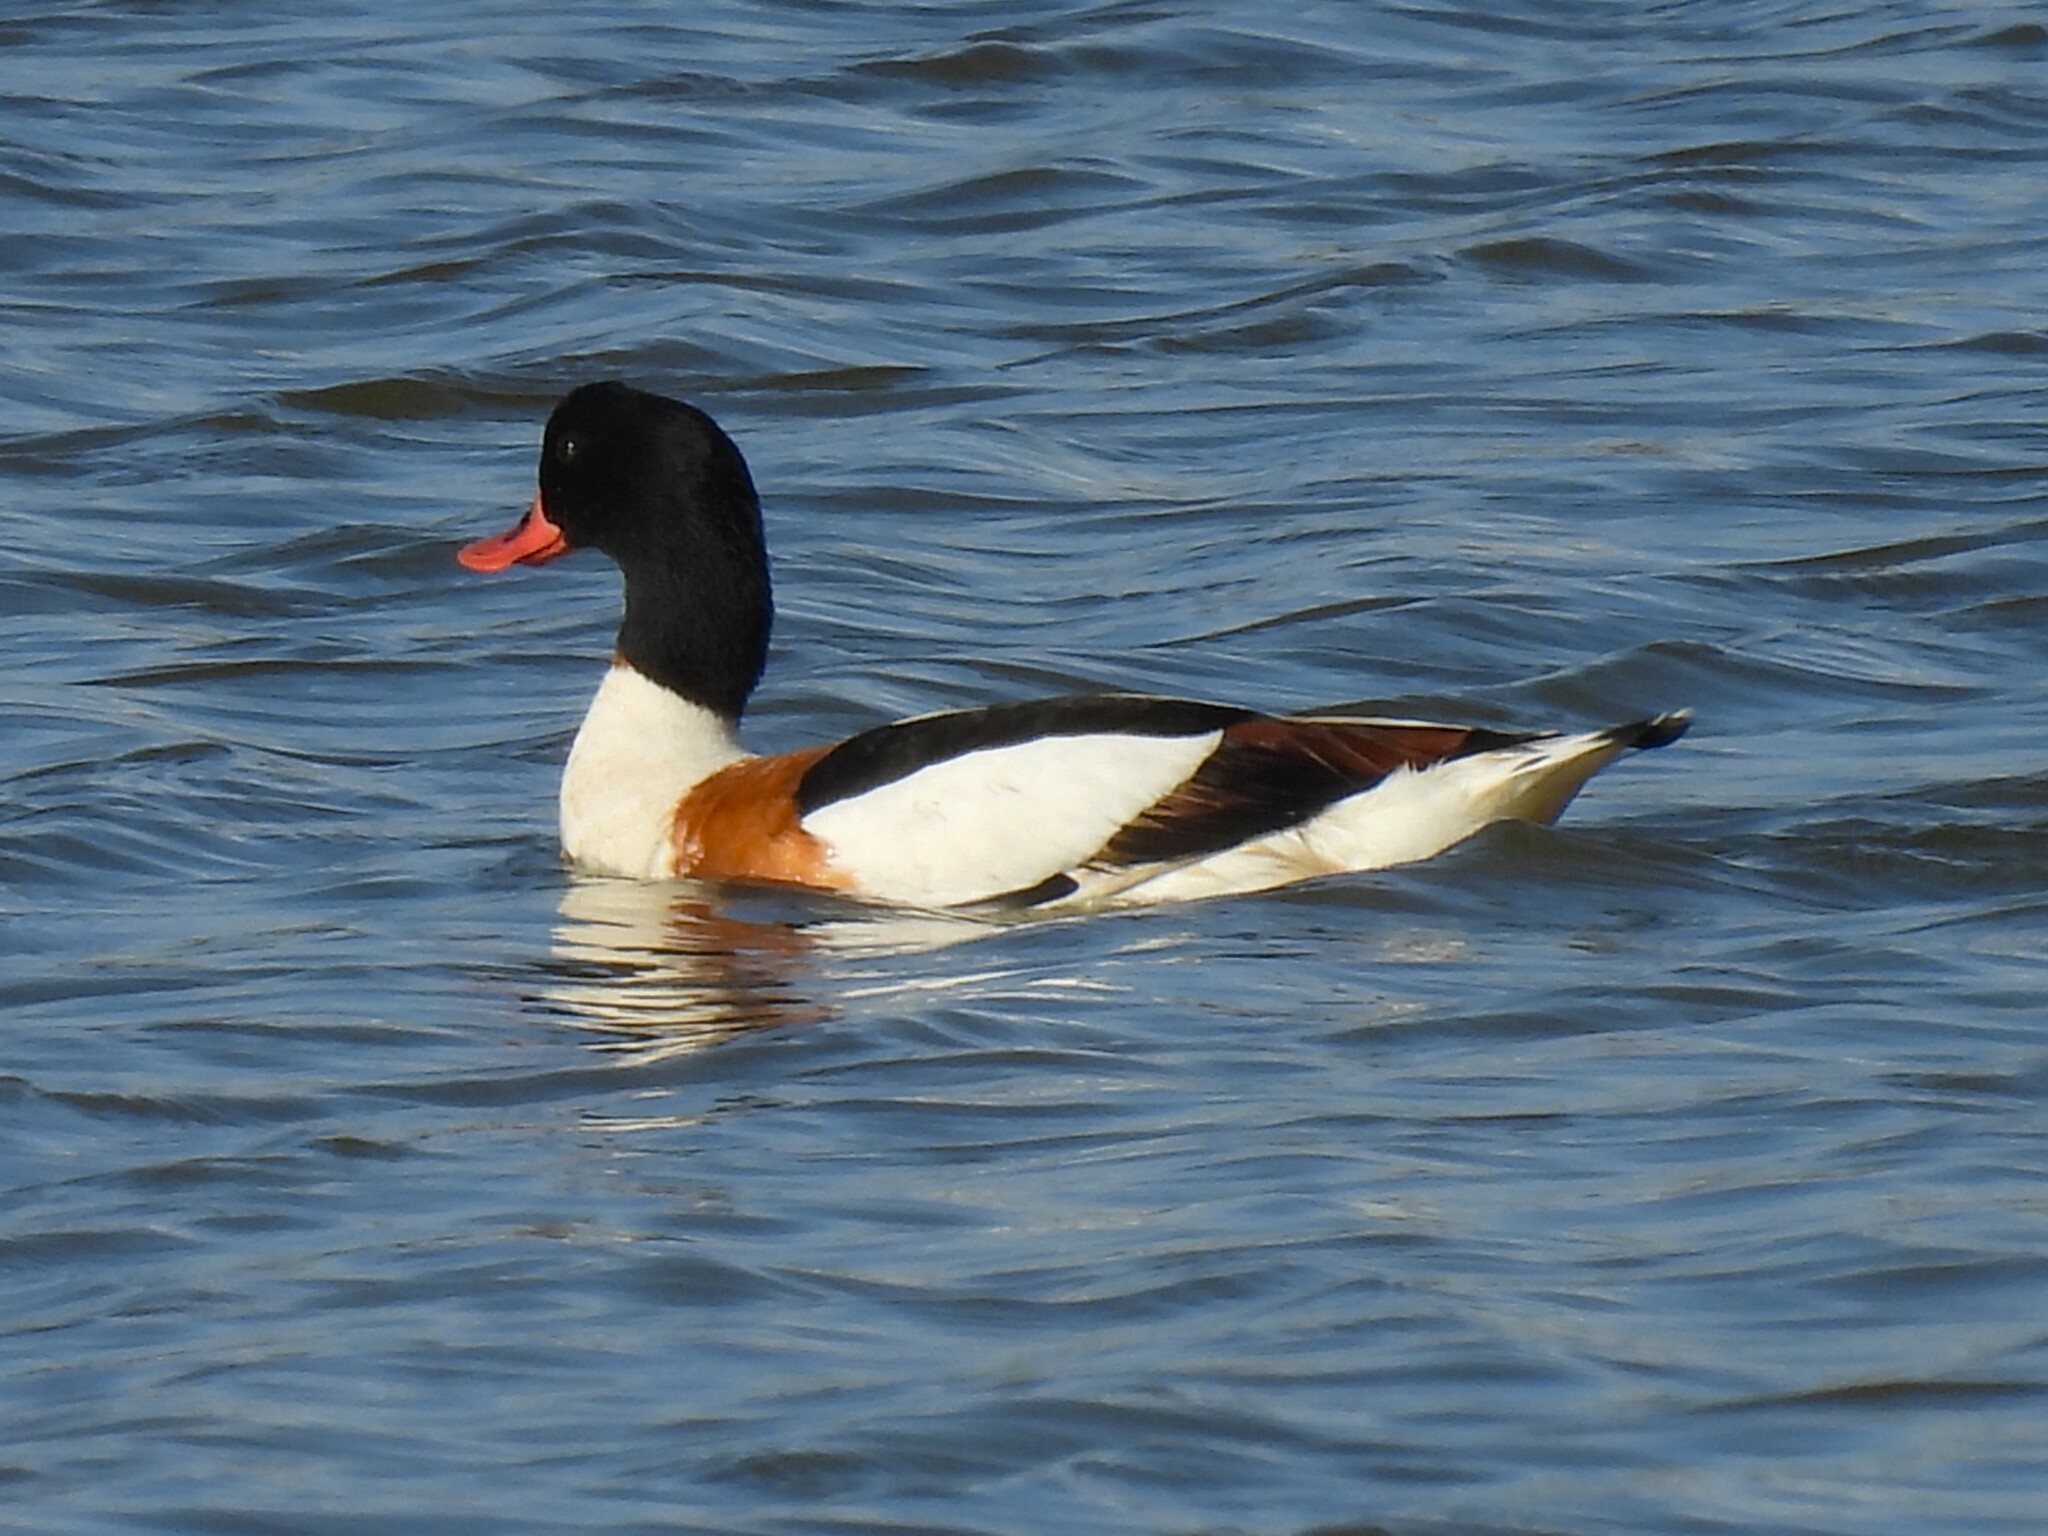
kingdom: Animalia
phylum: Chordata
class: Aves
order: Anseriformes
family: Anatidae
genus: Tadorna
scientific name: Tadorna tadorna
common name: Common shelduck
